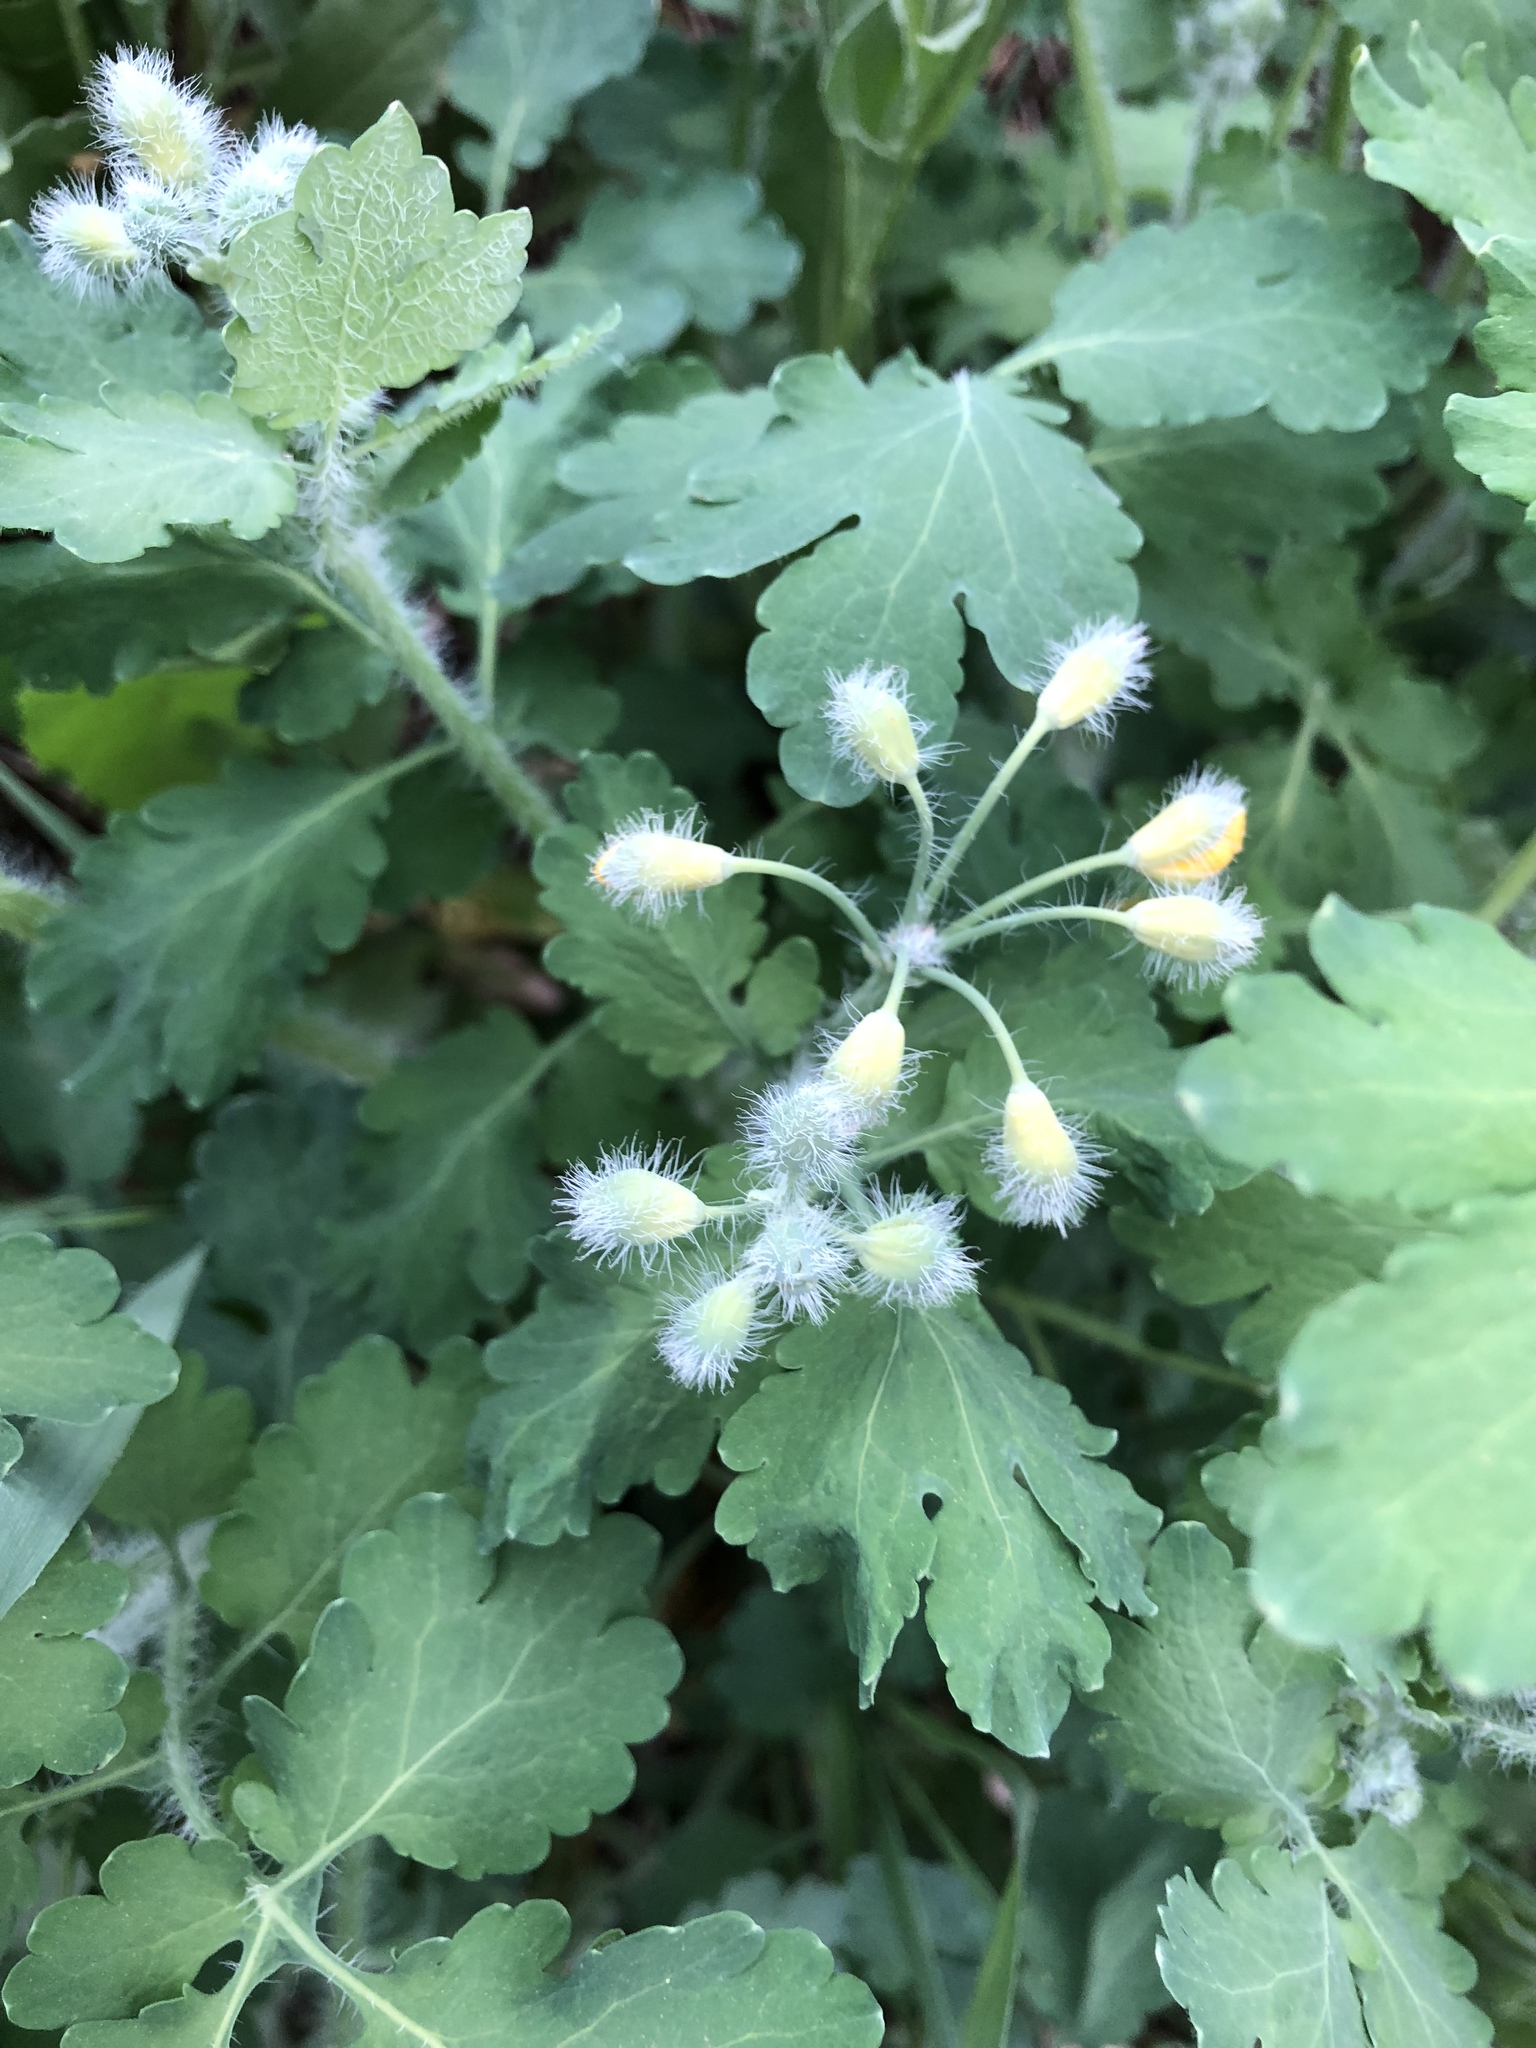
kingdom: Plantae
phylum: Tracheophyta
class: Magnoliopsida
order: Ranunculales
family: Papaveraceae
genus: Chelidonium
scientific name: Chelidonium majus
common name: Greater celandine
